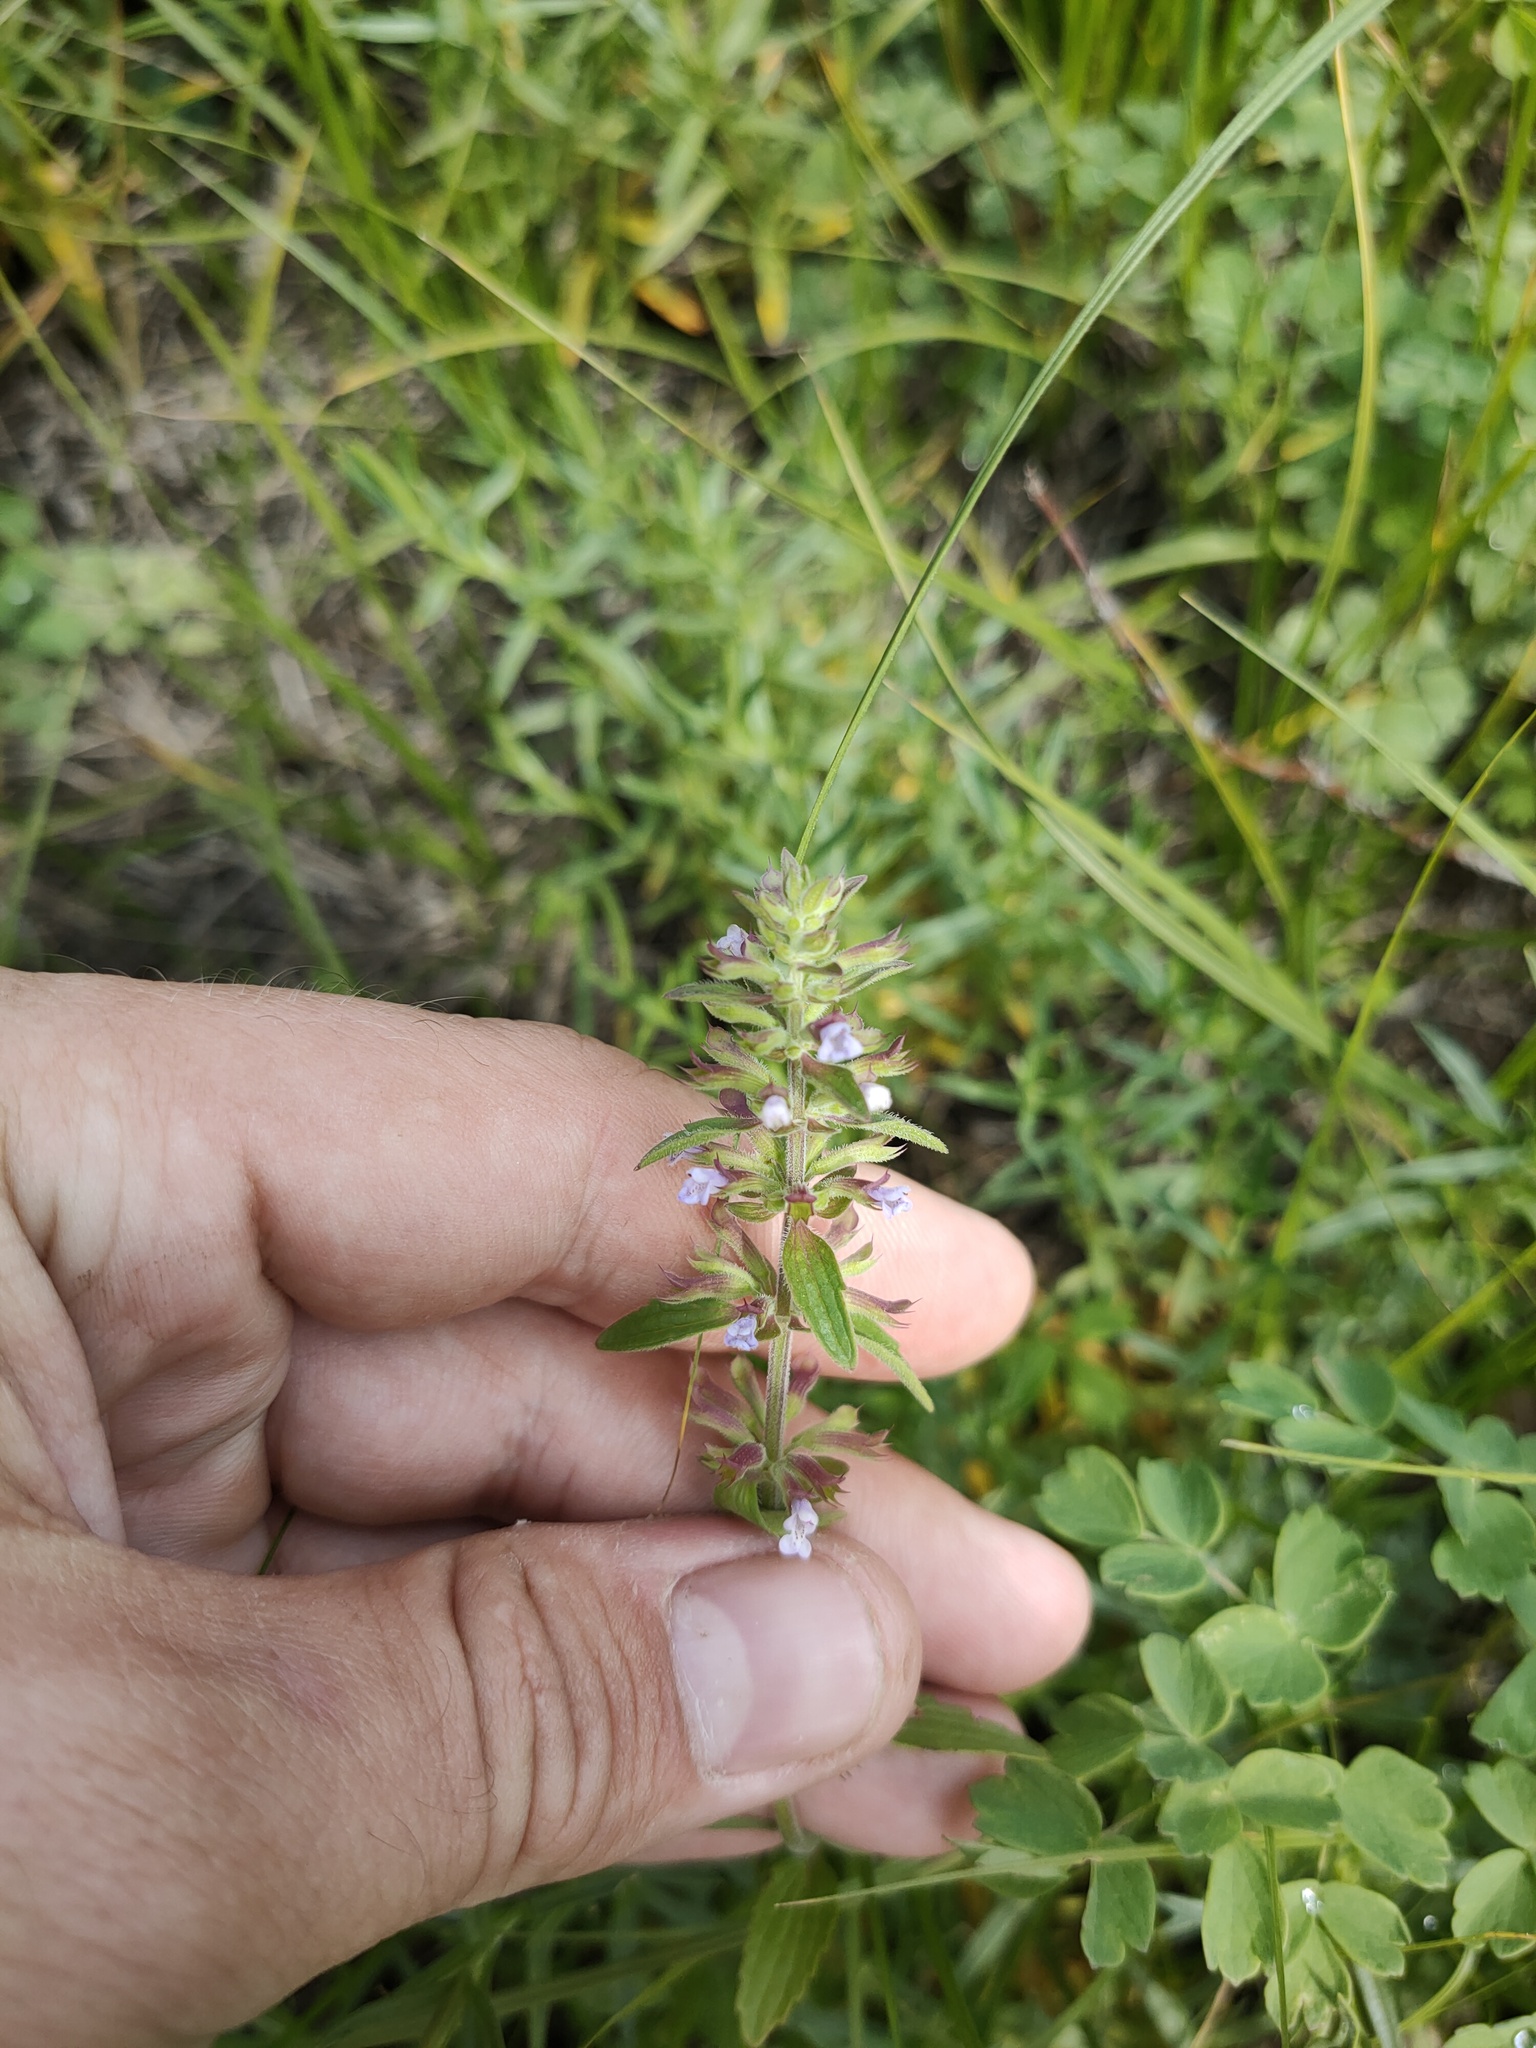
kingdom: Plantae
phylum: Tracheophyta
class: Magnoliopsida
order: Lamiales
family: Lamiaceae
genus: Dracocephalum
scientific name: Dracocephalum thymiflorum
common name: Thymeleaf dragonhead
